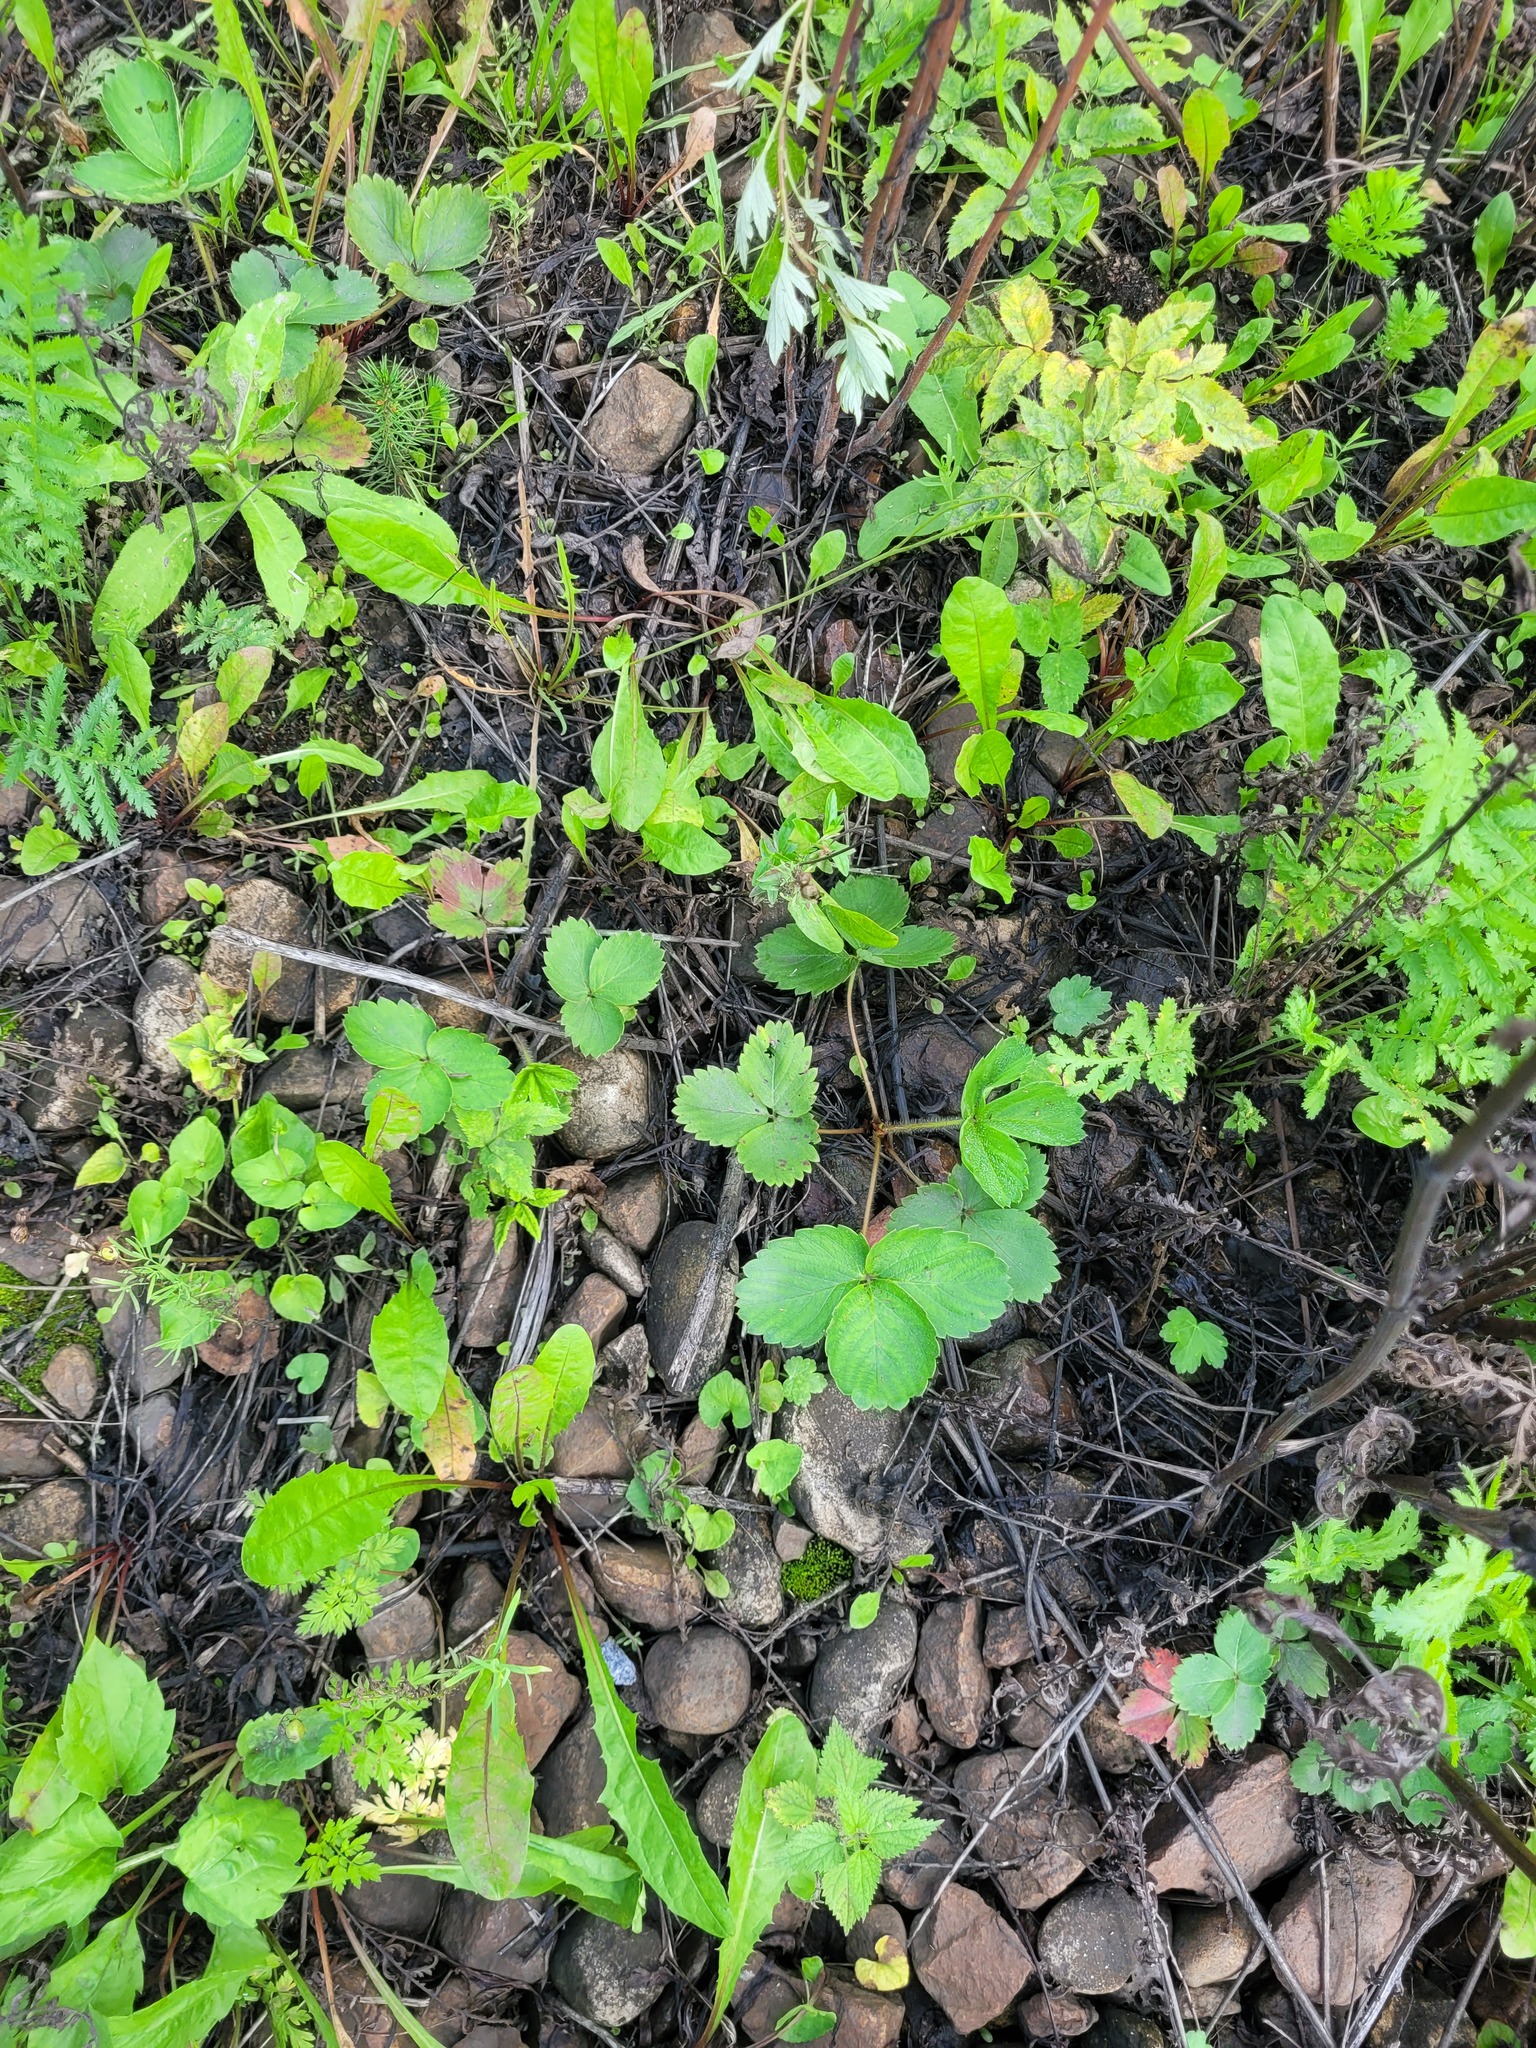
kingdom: Plantae
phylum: Tracheophyta
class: Magnoliopsida
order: Rosales
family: Rosaceae
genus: Fragaria
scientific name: Fragaria ananassa
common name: Garden strawberry
